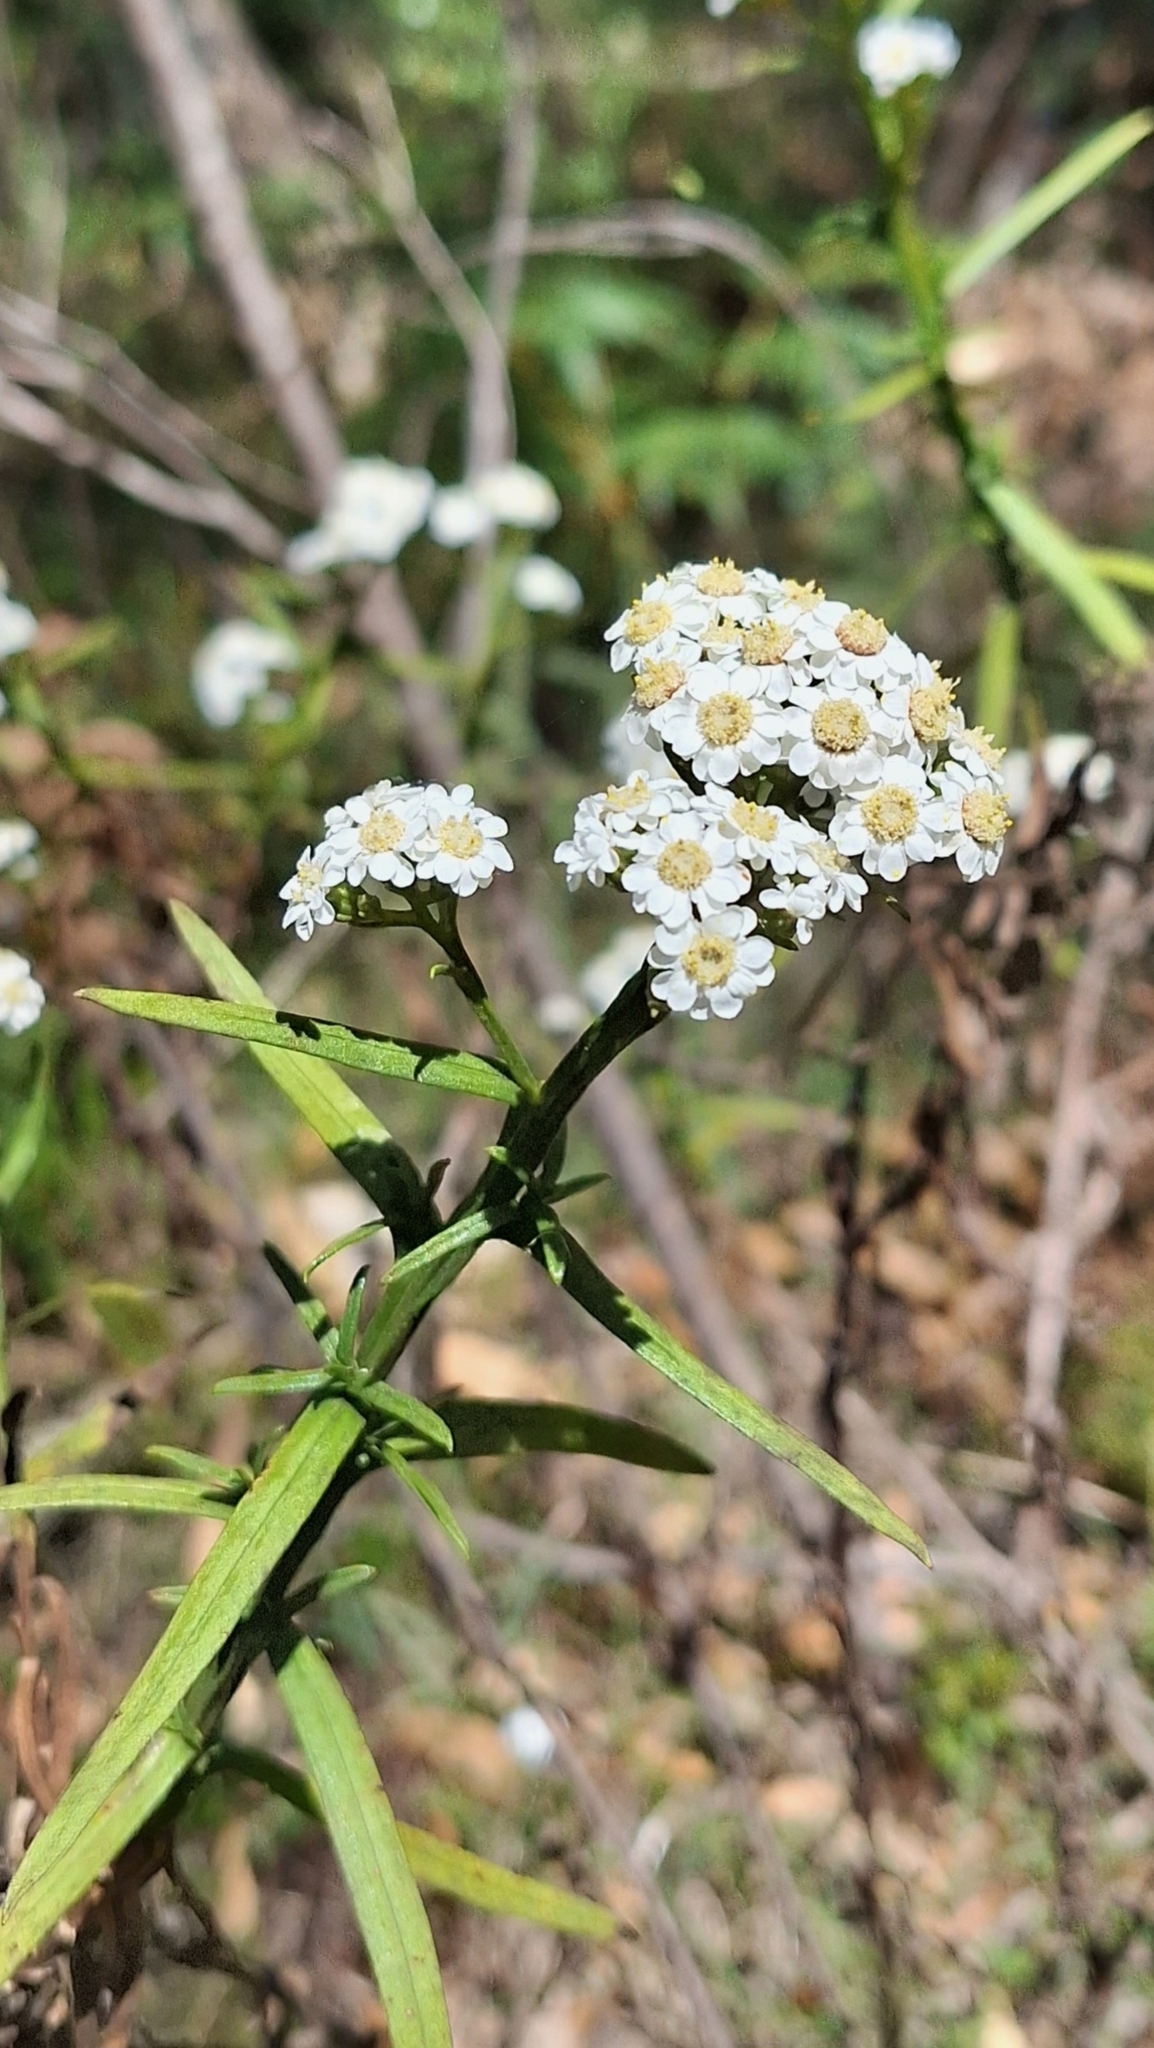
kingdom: Plantae
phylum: Tracheophyta
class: Magnoliopsida
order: Asterales
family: Asteraceae
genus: Ixodia
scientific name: Ixodia achillaeoides
